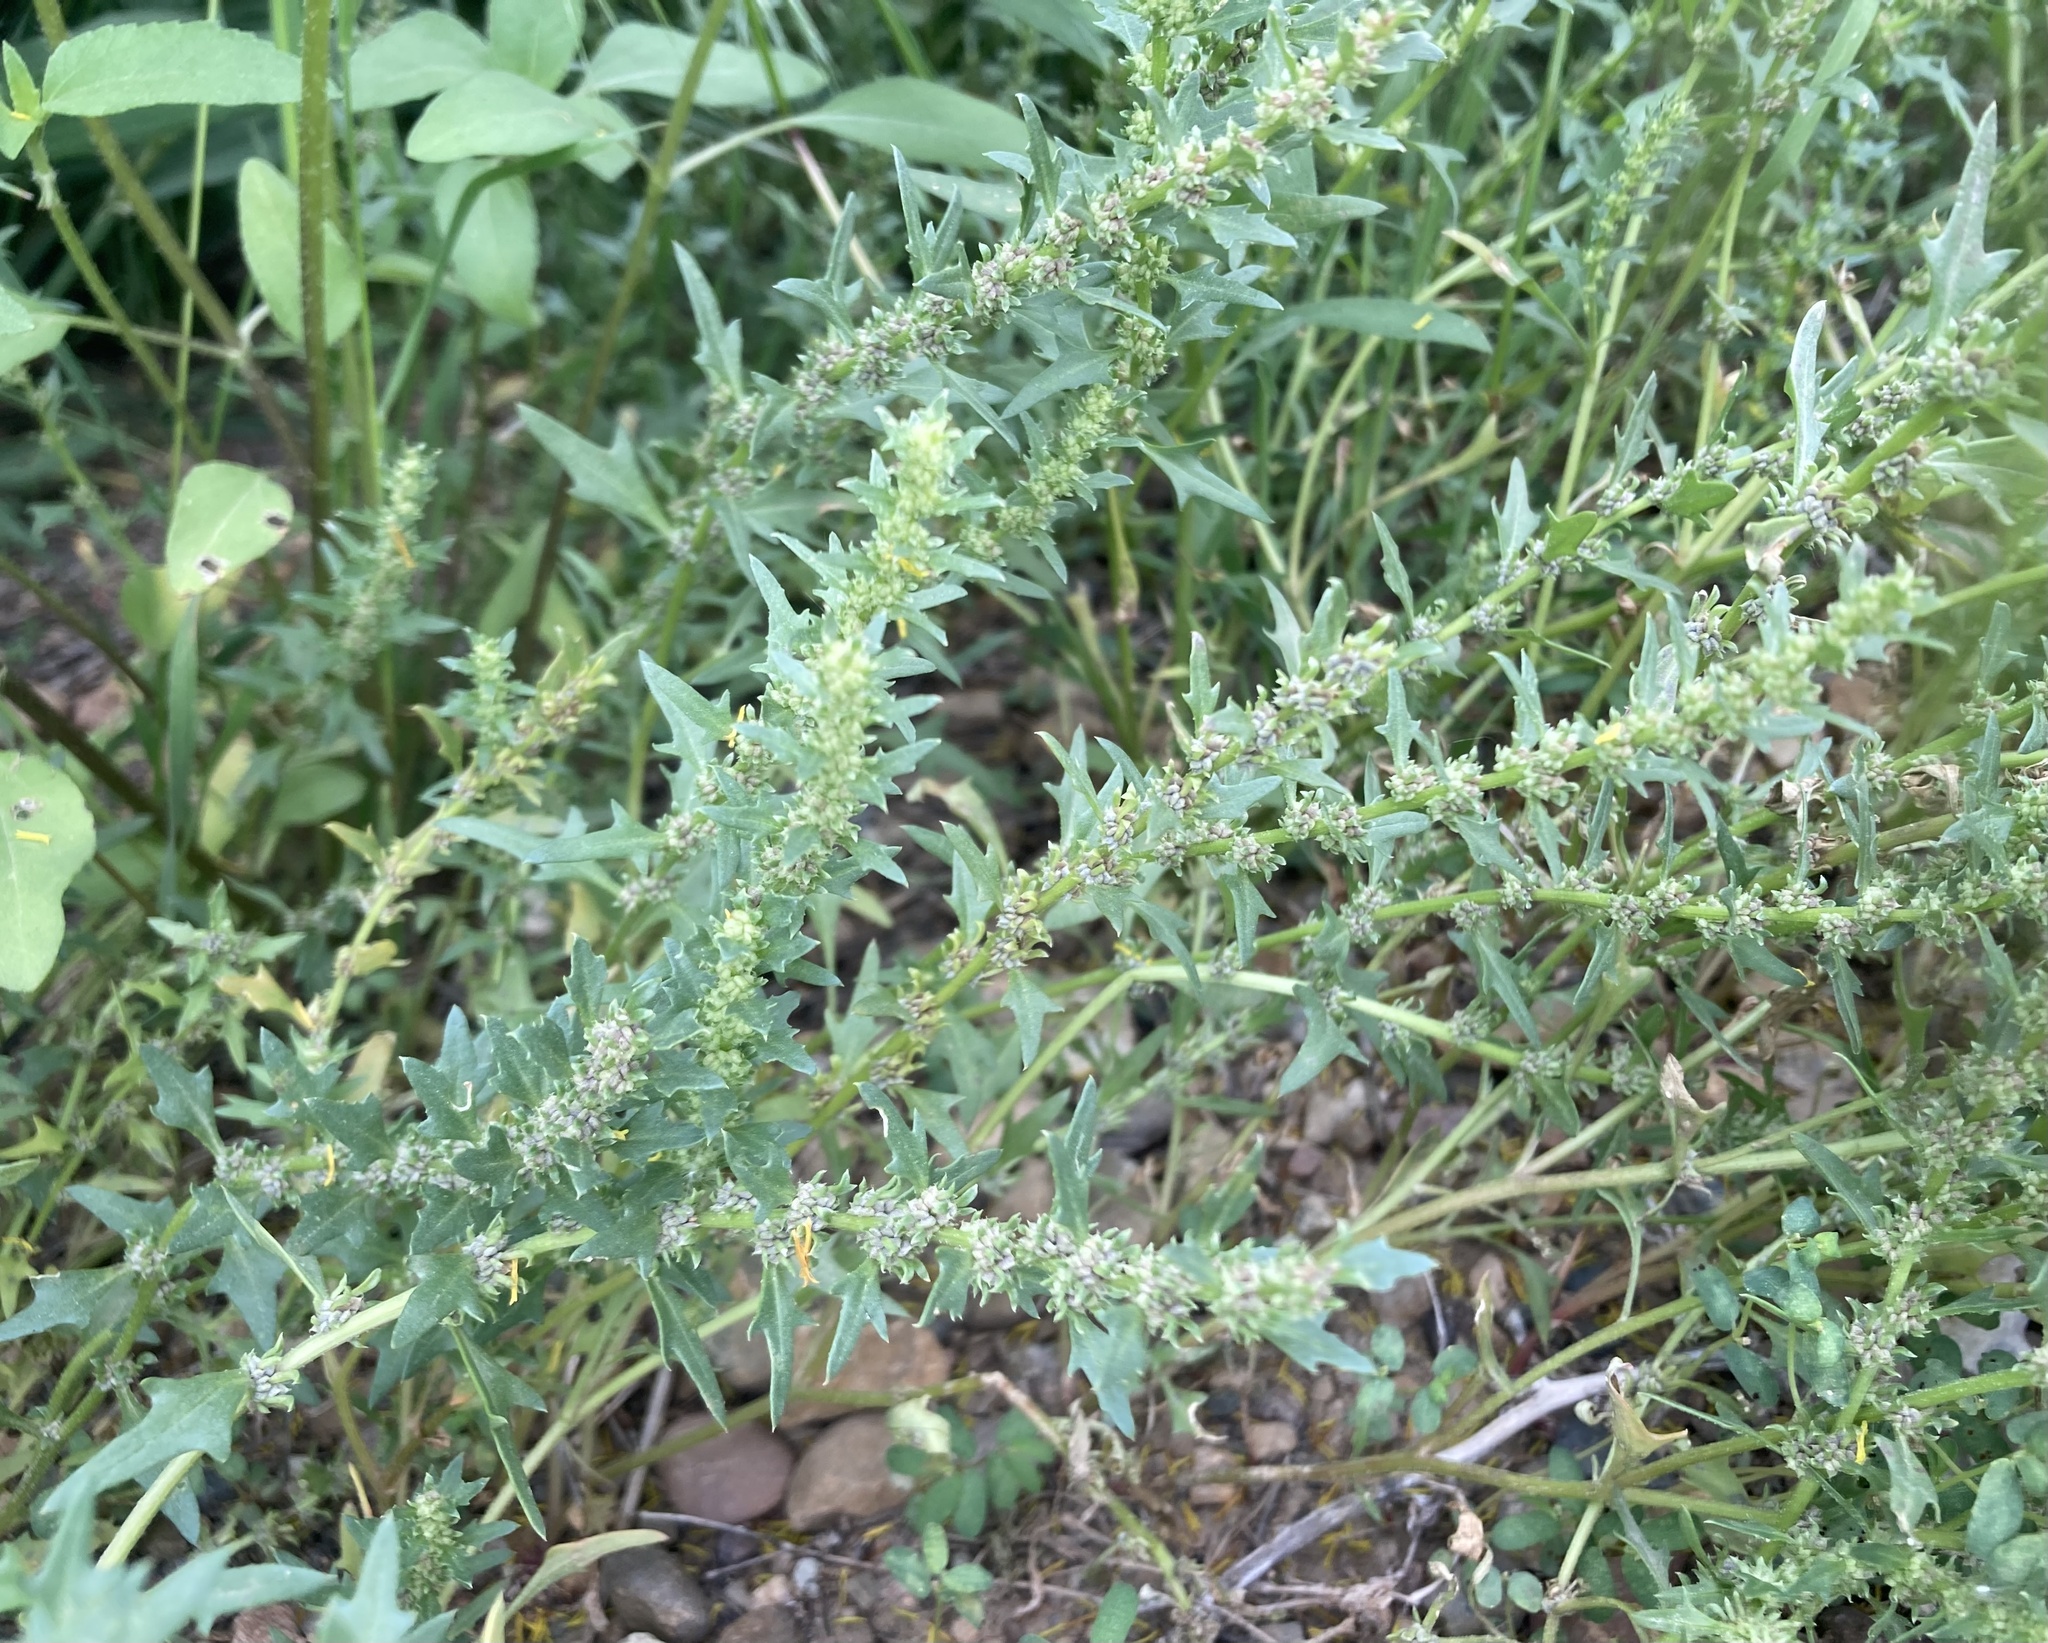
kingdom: Plantae
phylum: Tracheophyta
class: Magnoliopsida
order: Caryophyllales
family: Amaranthaceae
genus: Blitum
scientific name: Blitum nuttallianum
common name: Poverty-weed
